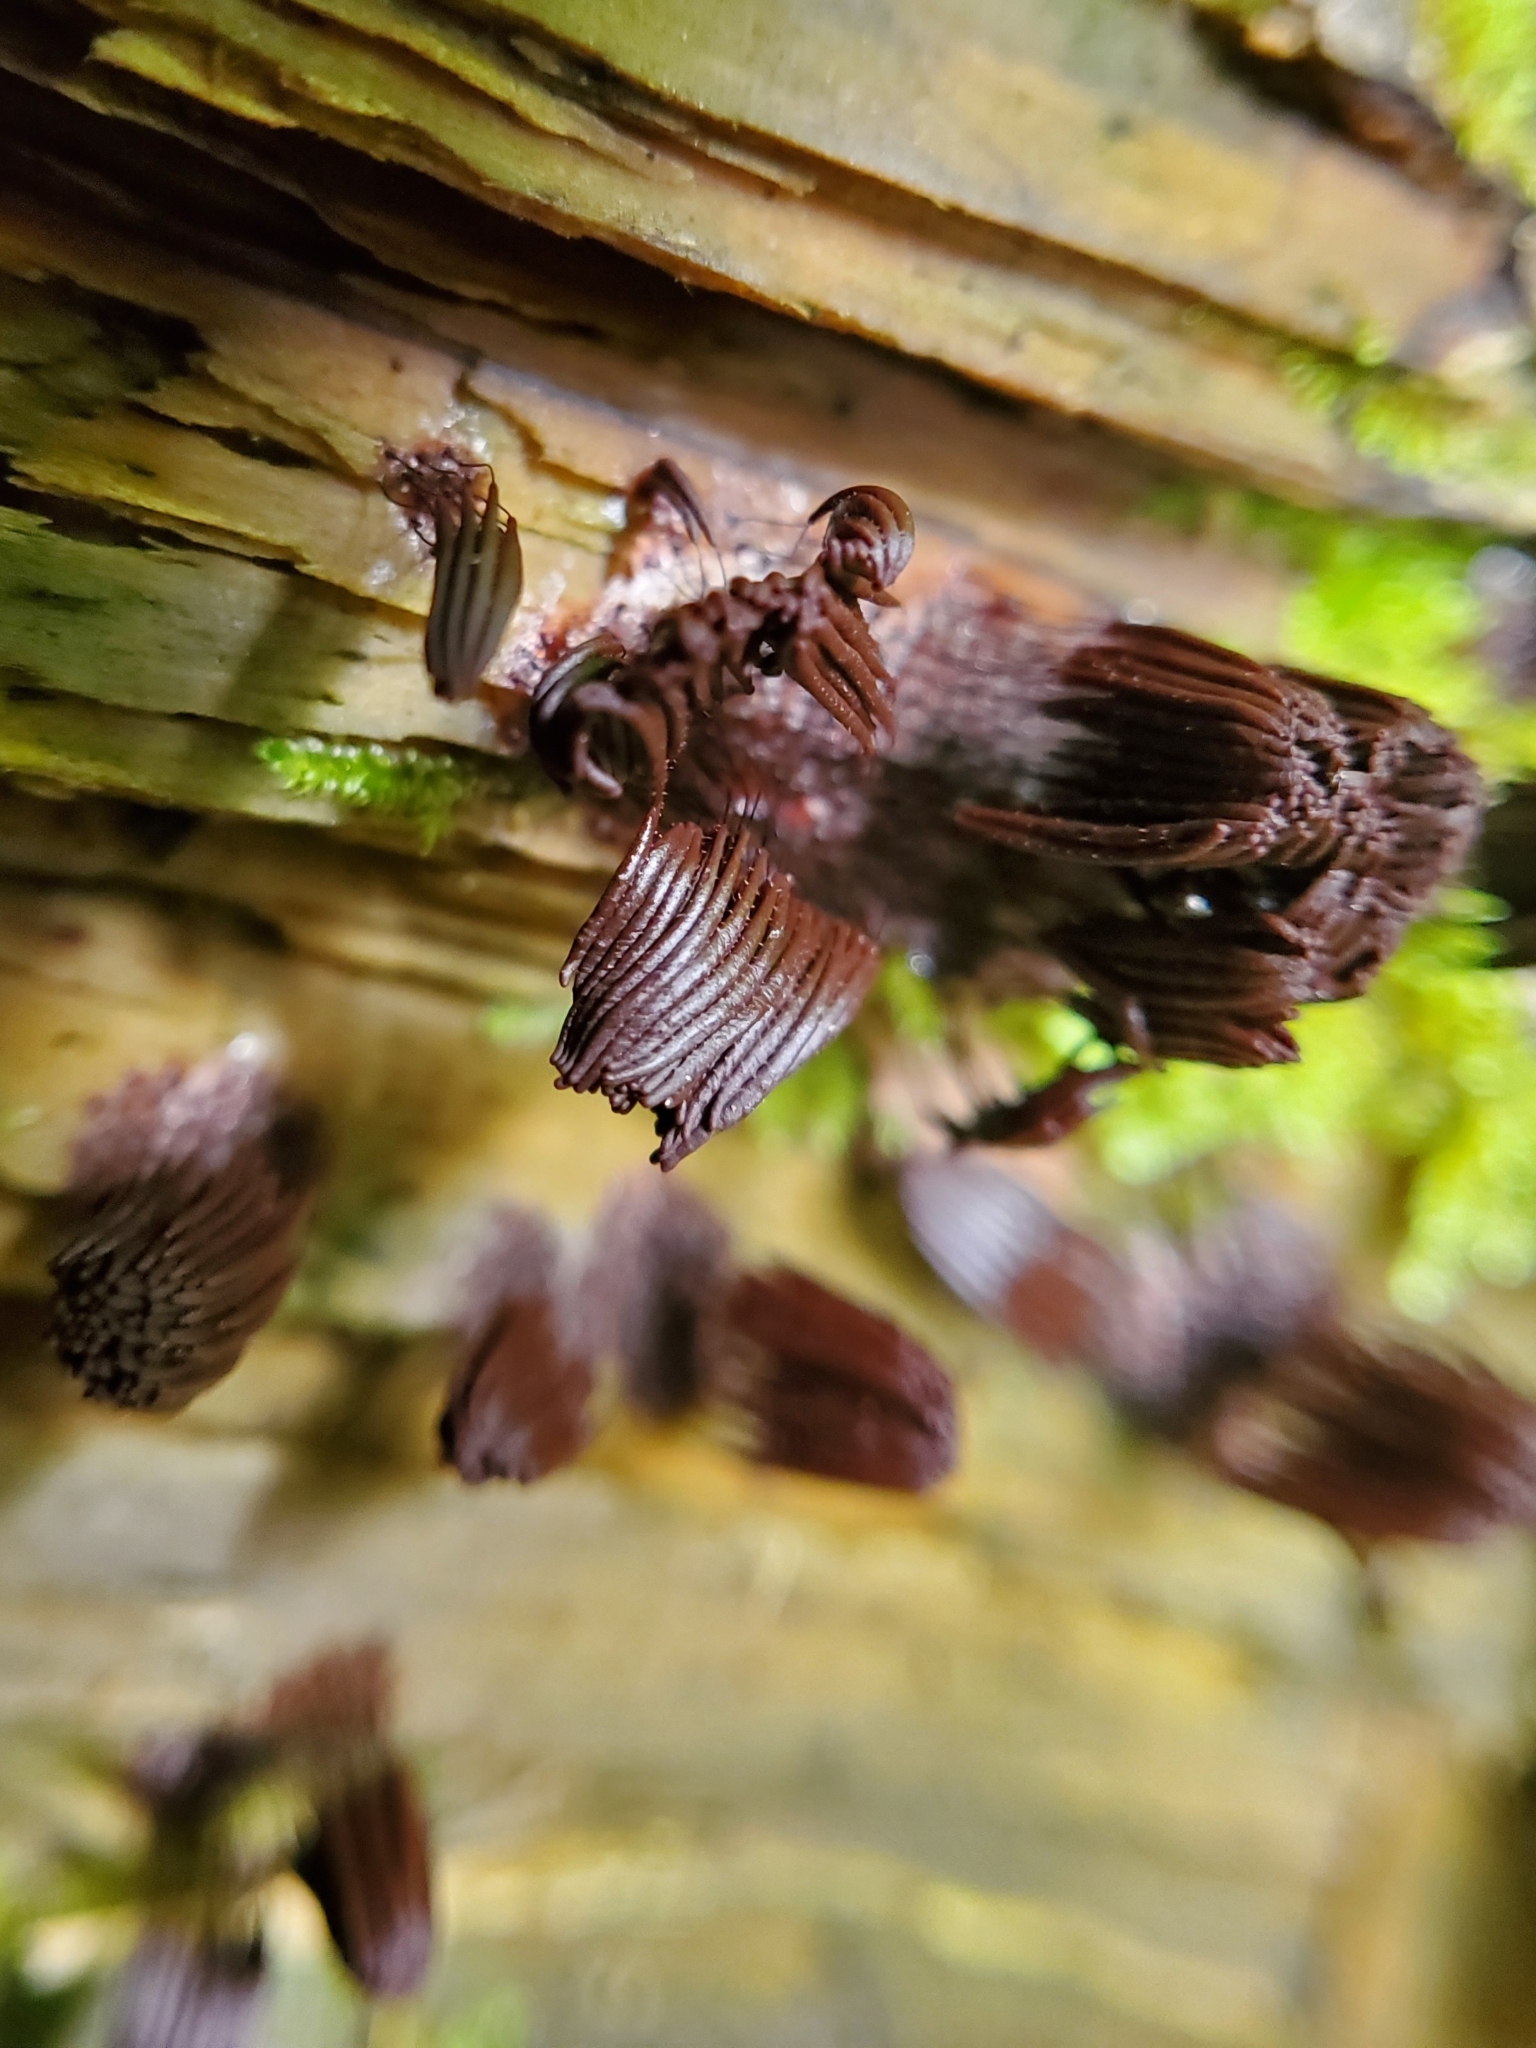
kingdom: Protozoa
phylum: Mycetozoa
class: Myxomycetes
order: Stemonitidales
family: Stemonitidaceae
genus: Stemonitis
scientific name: Stemonitis splendens
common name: Chocolate tube slime
